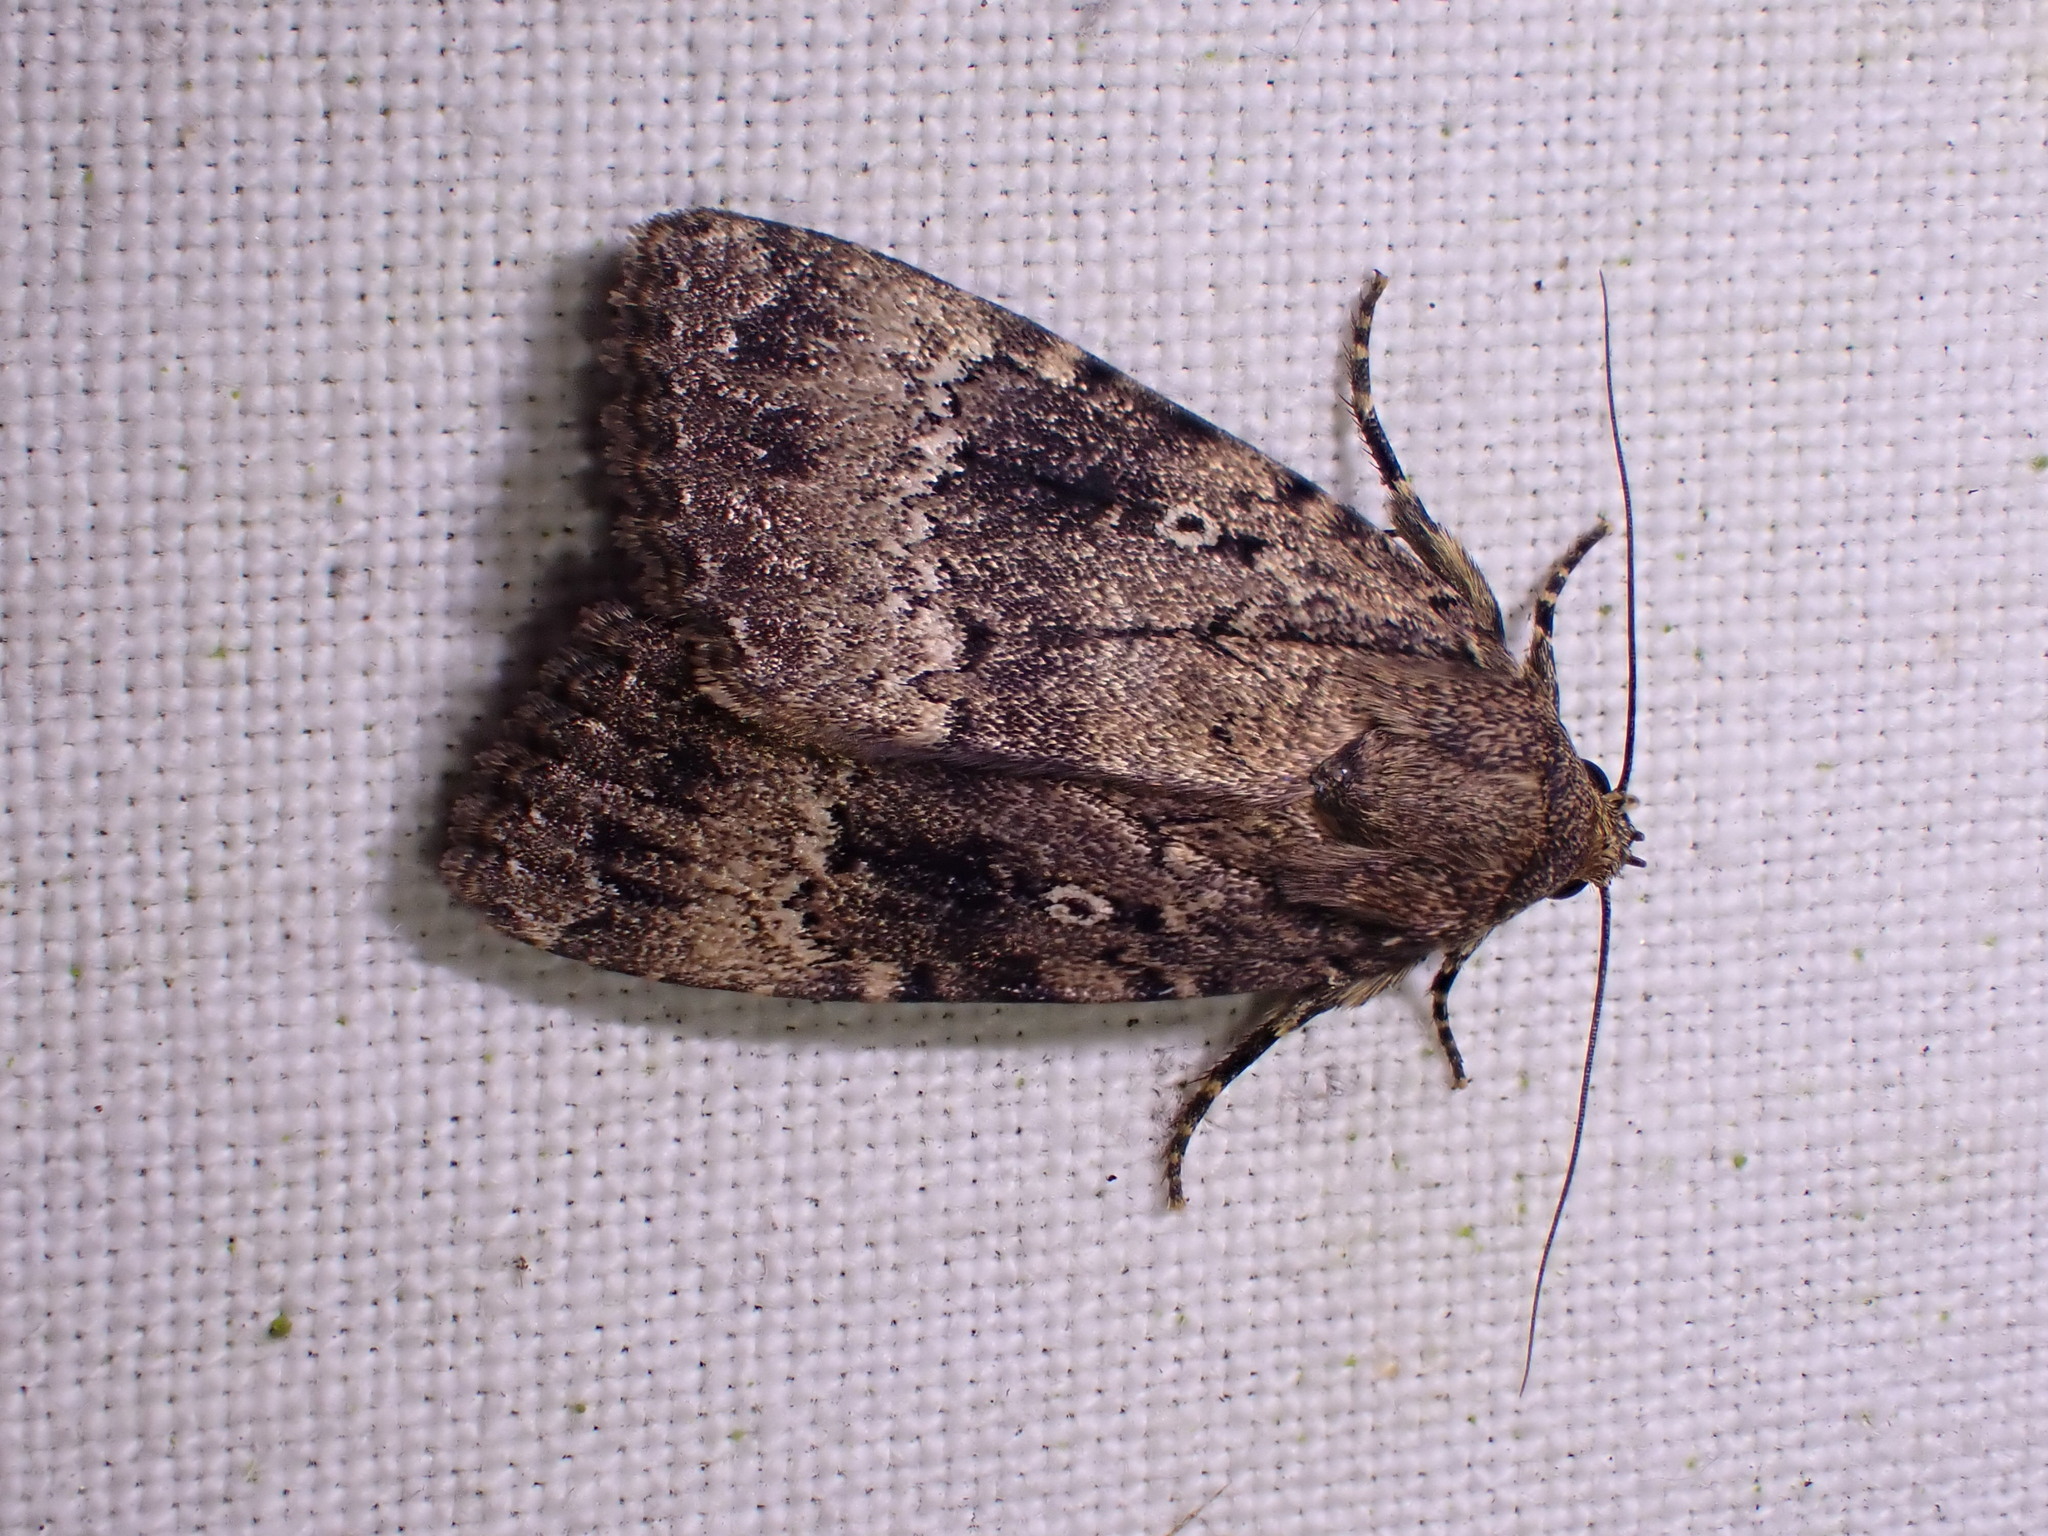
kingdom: Animalia
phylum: Arthropoda
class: Insecta
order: Lepidoptera
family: Noctuidae
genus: Amphipyra
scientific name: Amphipyra pyramidea
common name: Copper underwing
